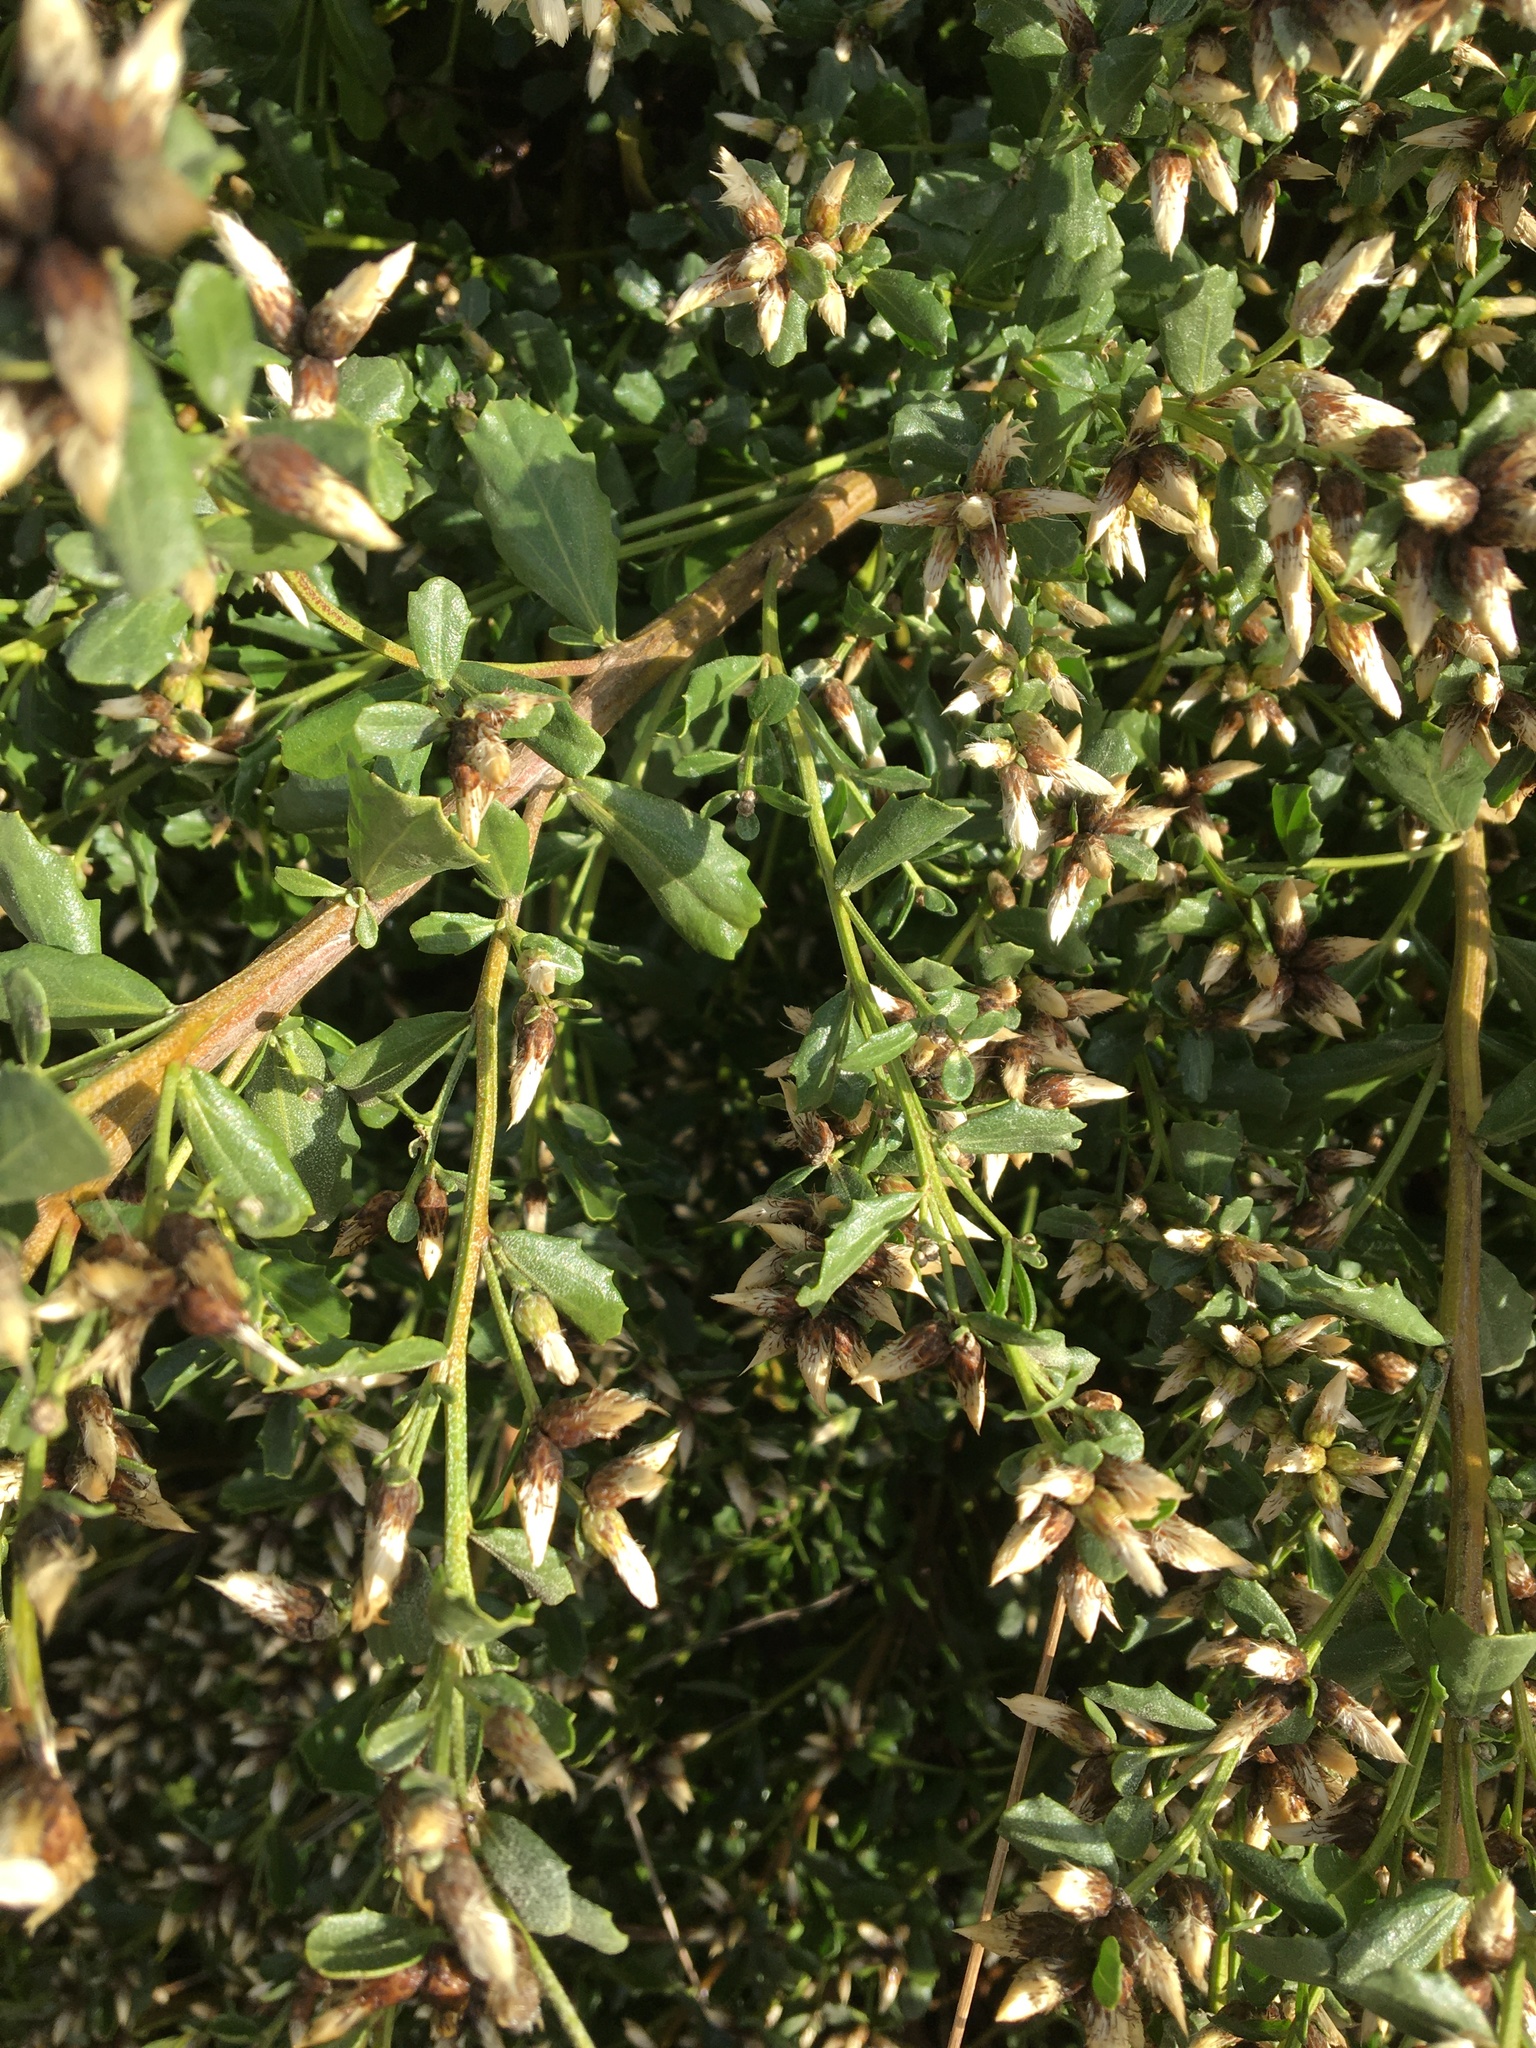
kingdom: Plantae
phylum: Tracheophyta
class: Magnoliopsida
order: Asterales
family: Asteraceae
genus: Baccharis
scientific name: Baccharis pilularis
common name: Coyotebrush
